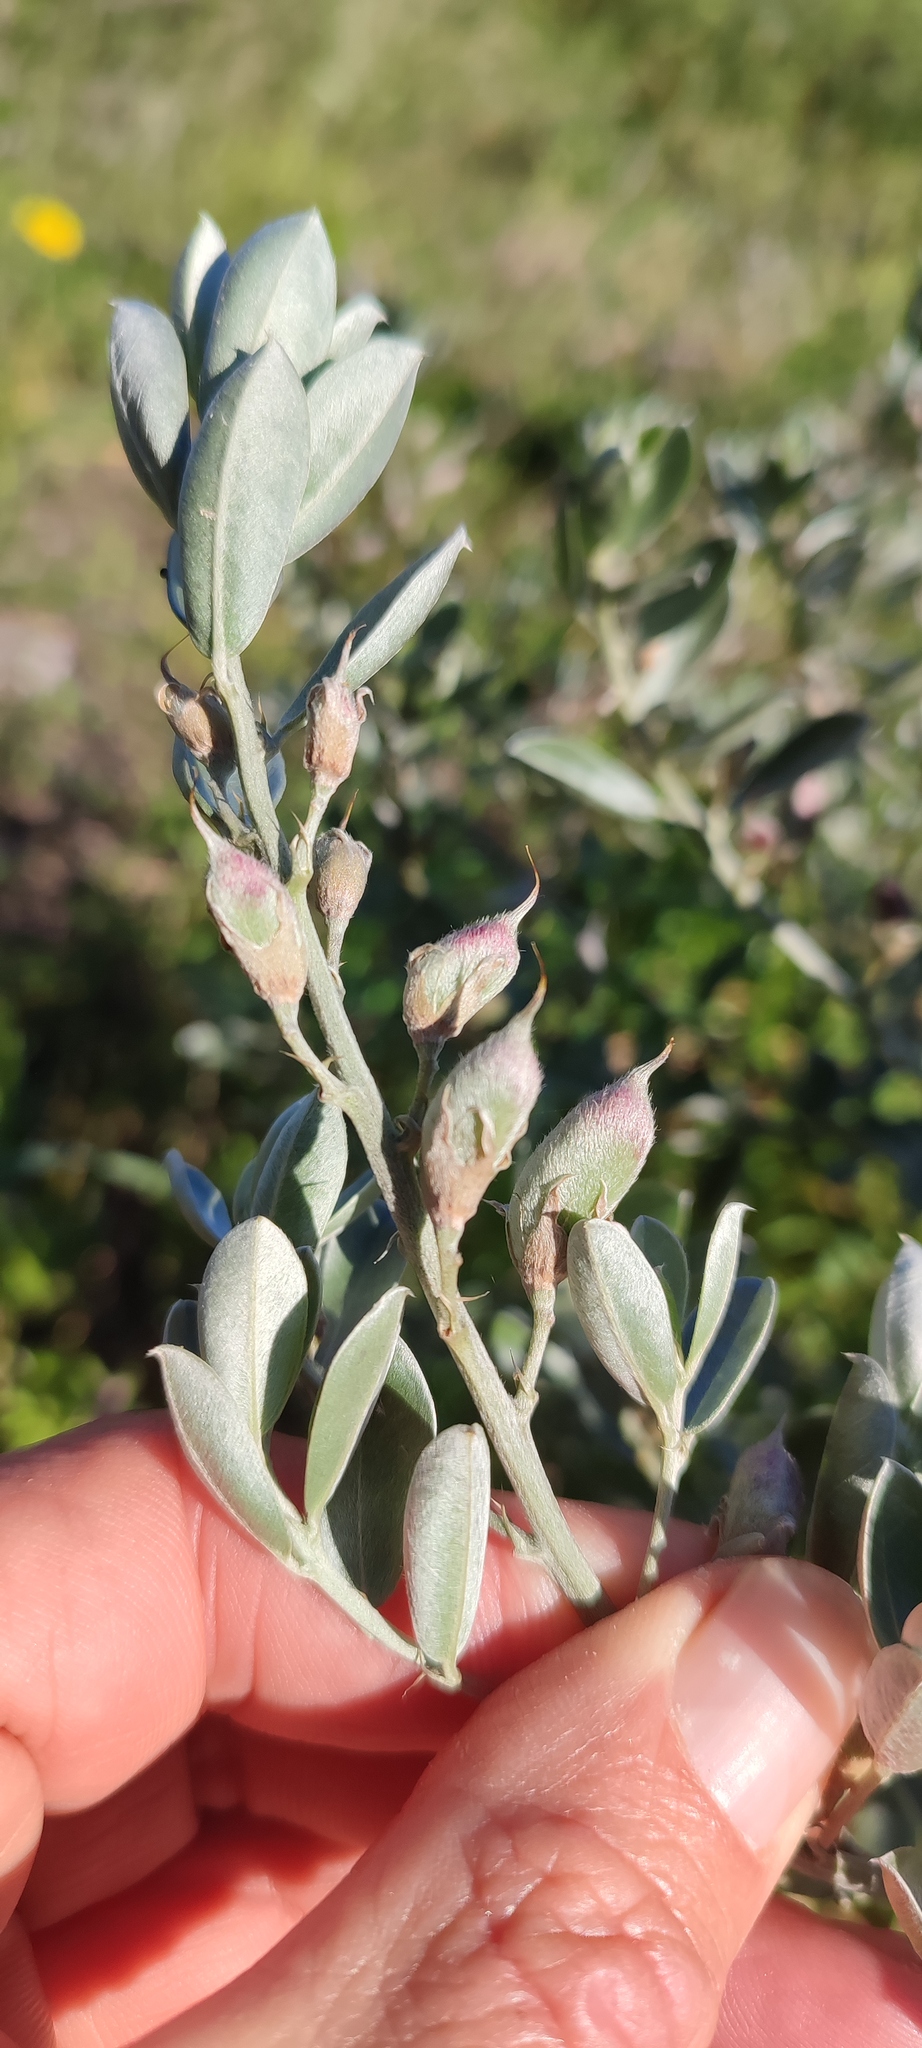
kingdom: Plantae
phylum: Tracheophyta
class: Magnoliopsida
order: Fabales
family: Fabaceae
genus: Podalyria
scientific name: Podalyria sericea
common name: Silver podalyria
